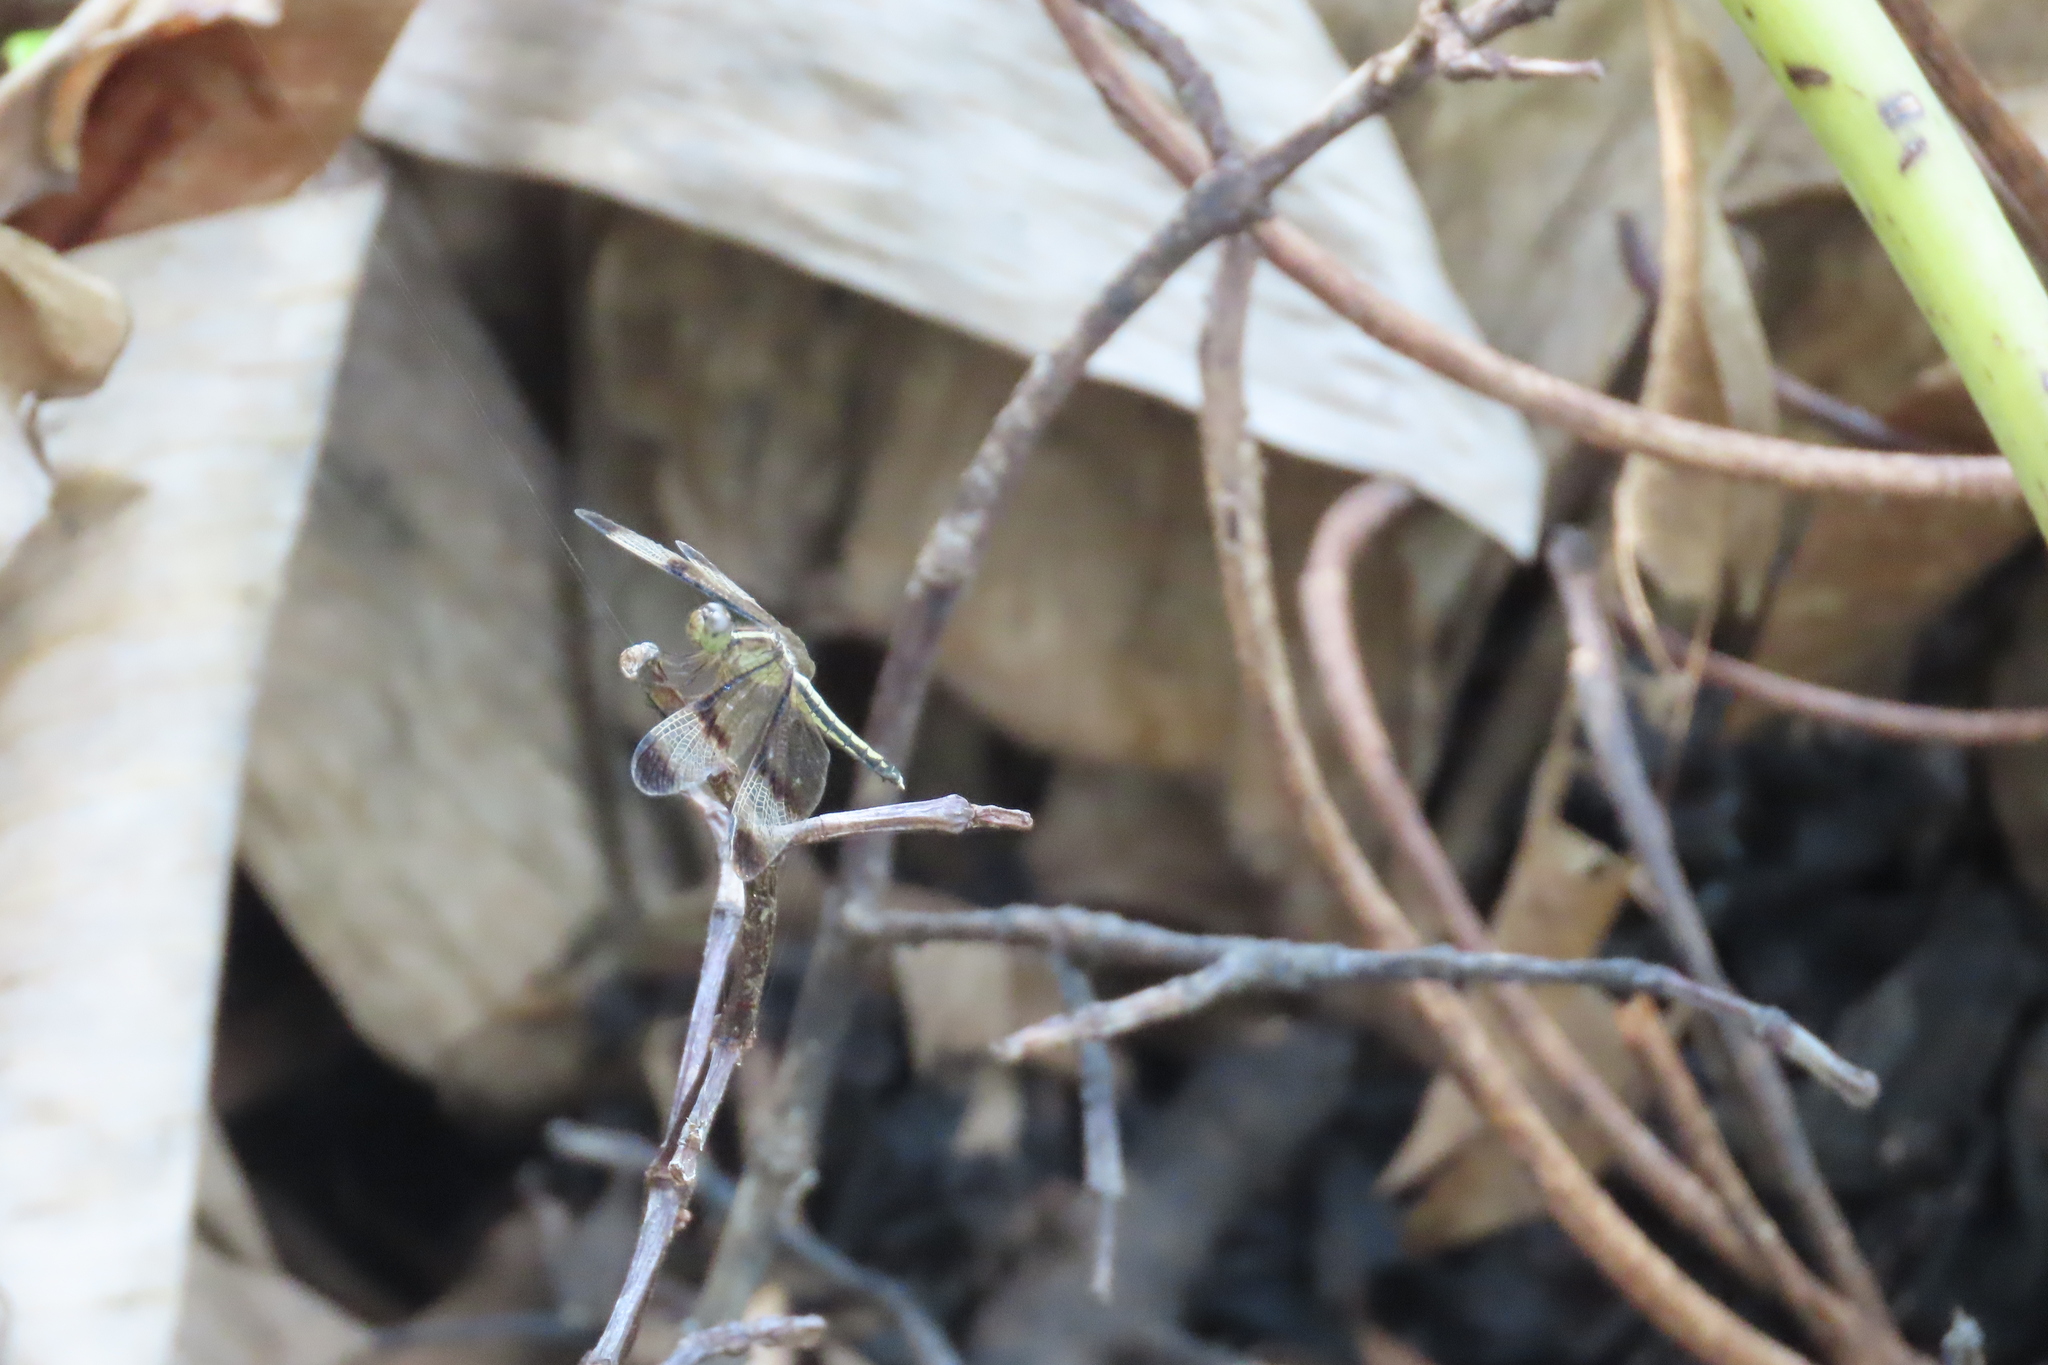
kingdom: Animalia
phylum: Arthropoda
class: Insecta
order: Odonata
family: Libellulidae
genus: Neurothemis
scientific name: Neurothemis tullia
